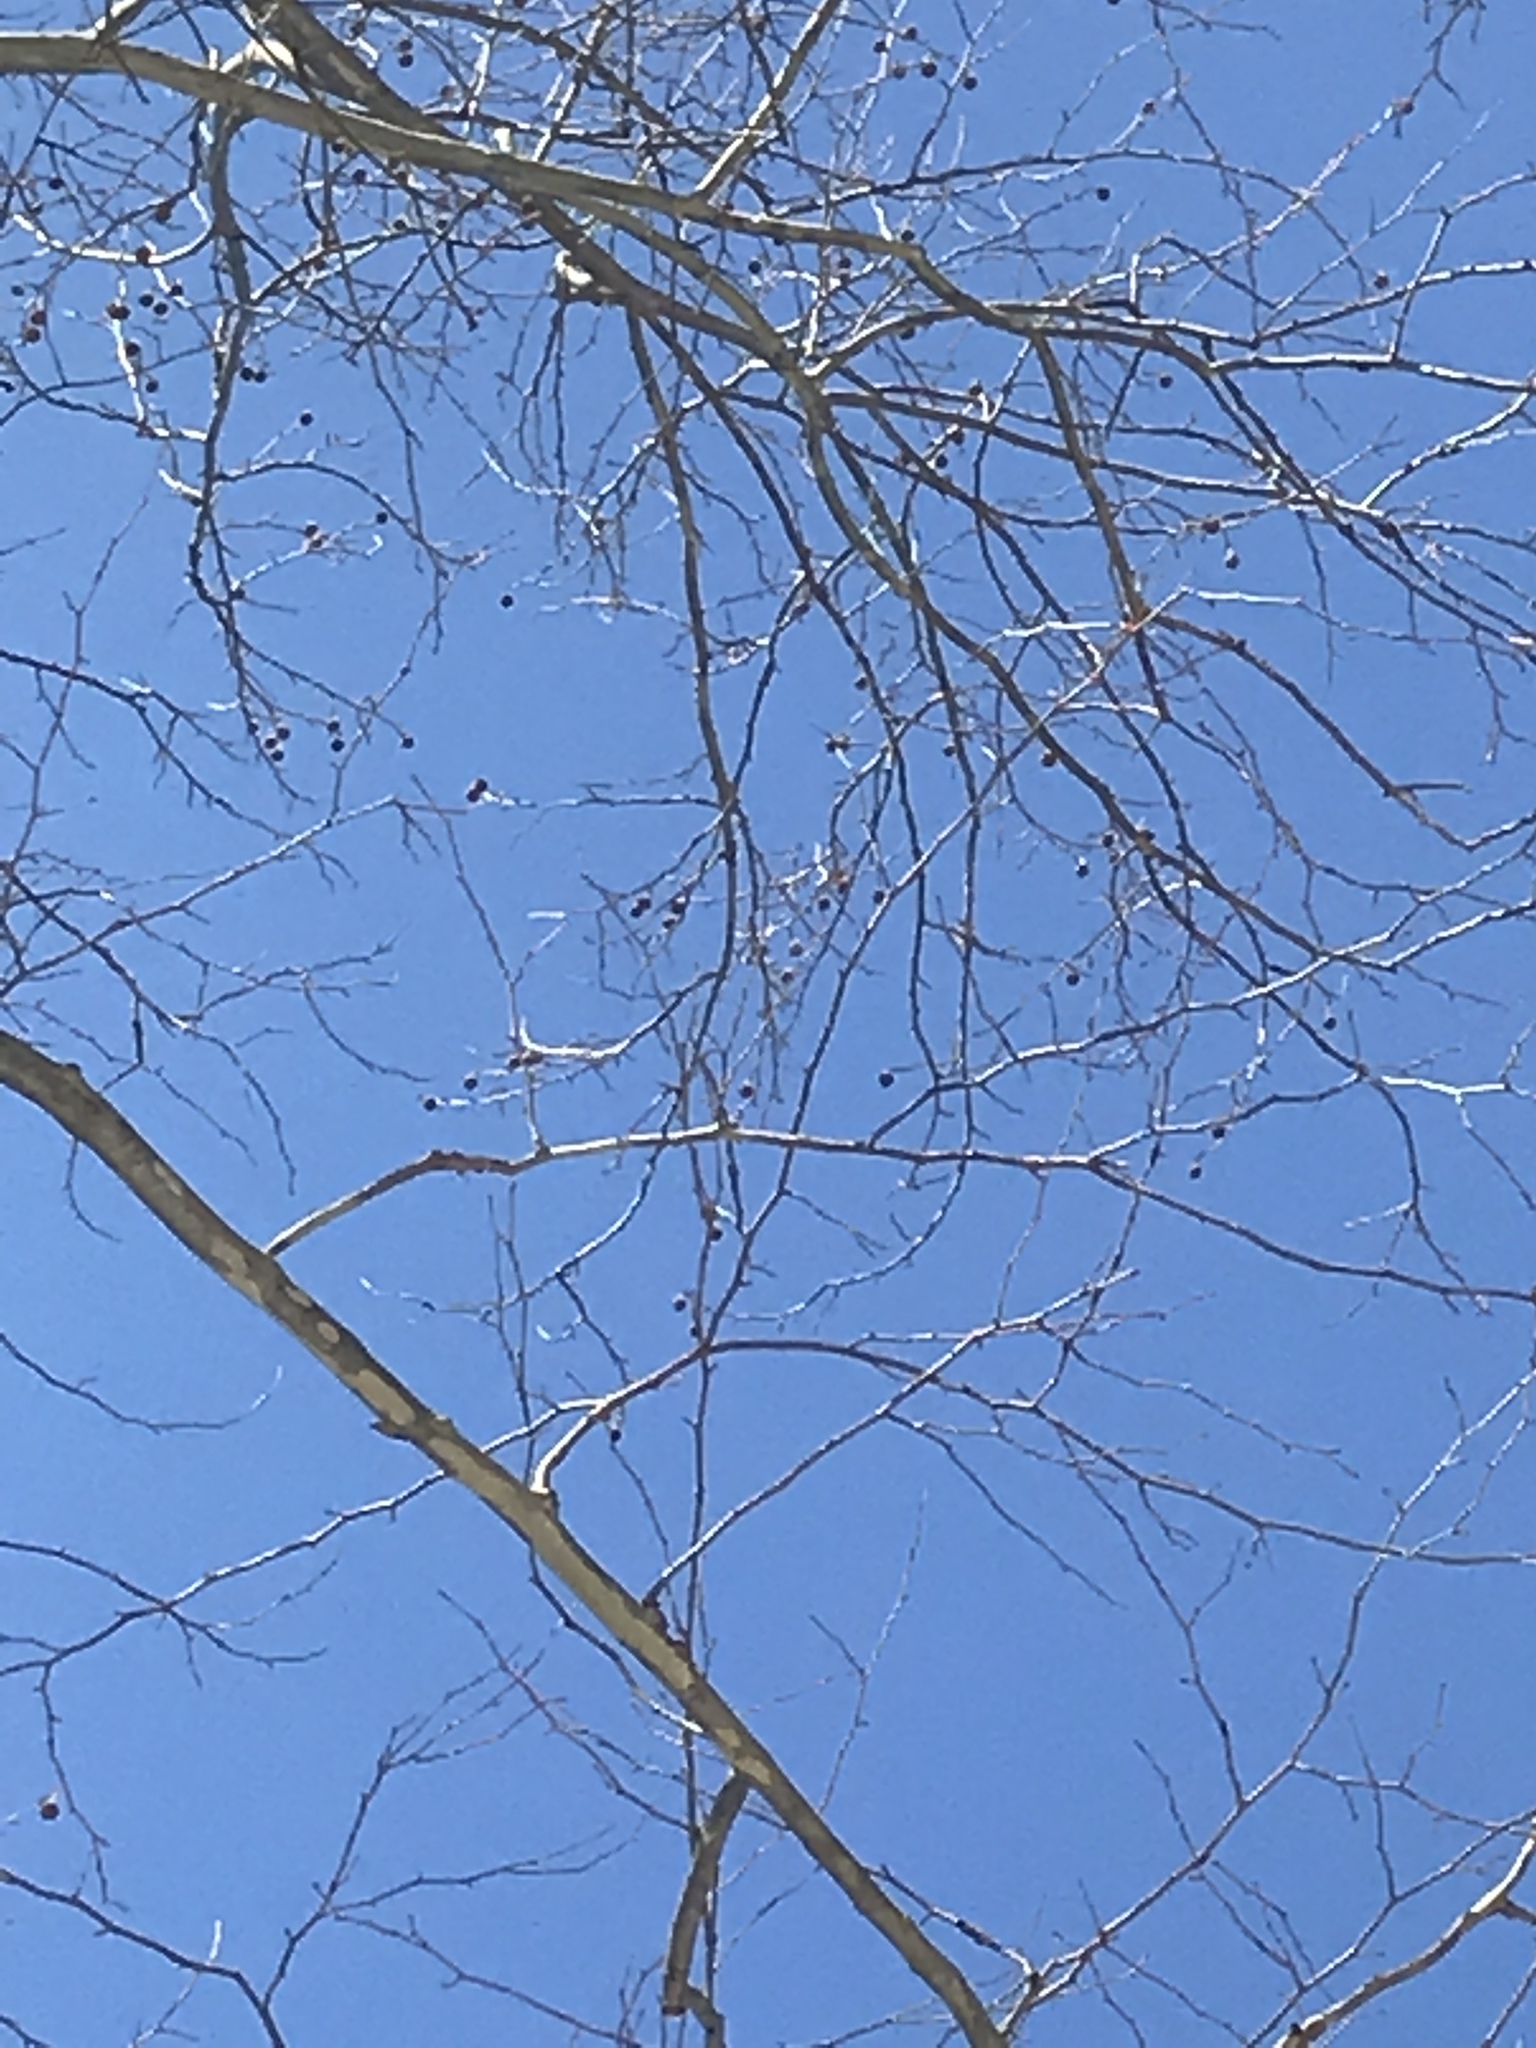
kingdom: Plantae
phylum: Tracheophyta
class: Magnoliopsida
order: Proteales
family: Platanaceae
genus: Platanus
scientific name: Platanus occidentalis
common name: American sycamore
